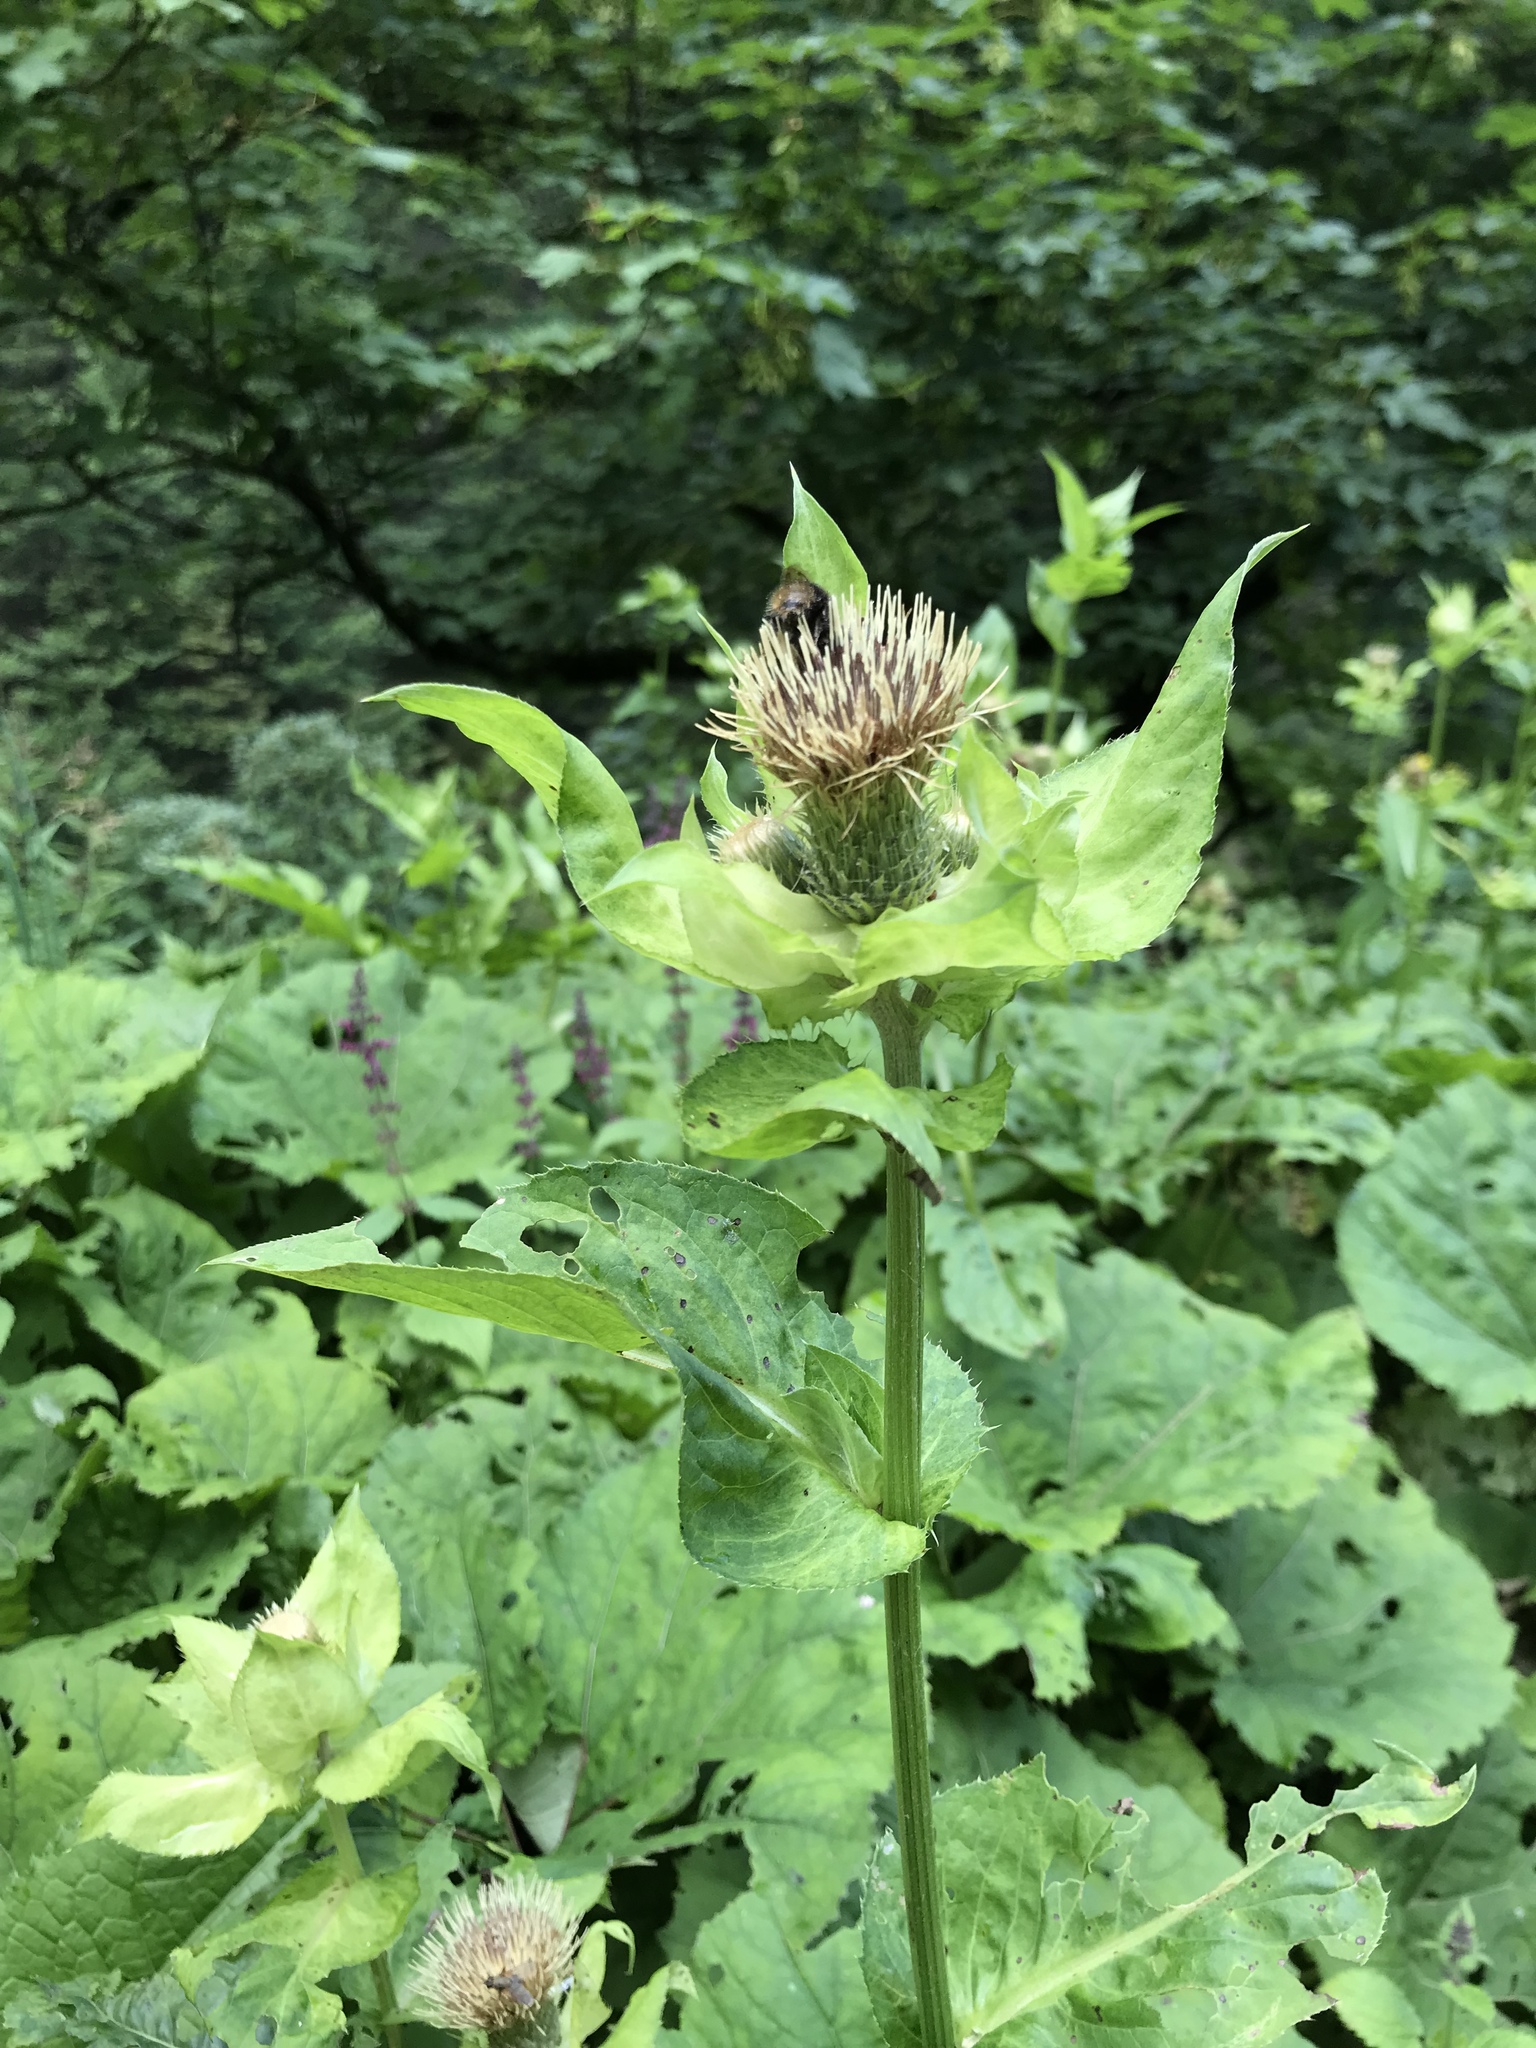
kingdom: Plantae
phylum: Tracheophyta
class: Magnoliopsida
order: Asterales
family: Asteraceae
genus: Cirsium
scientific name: Cirsium oleraceum
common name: Cabbage thistle
